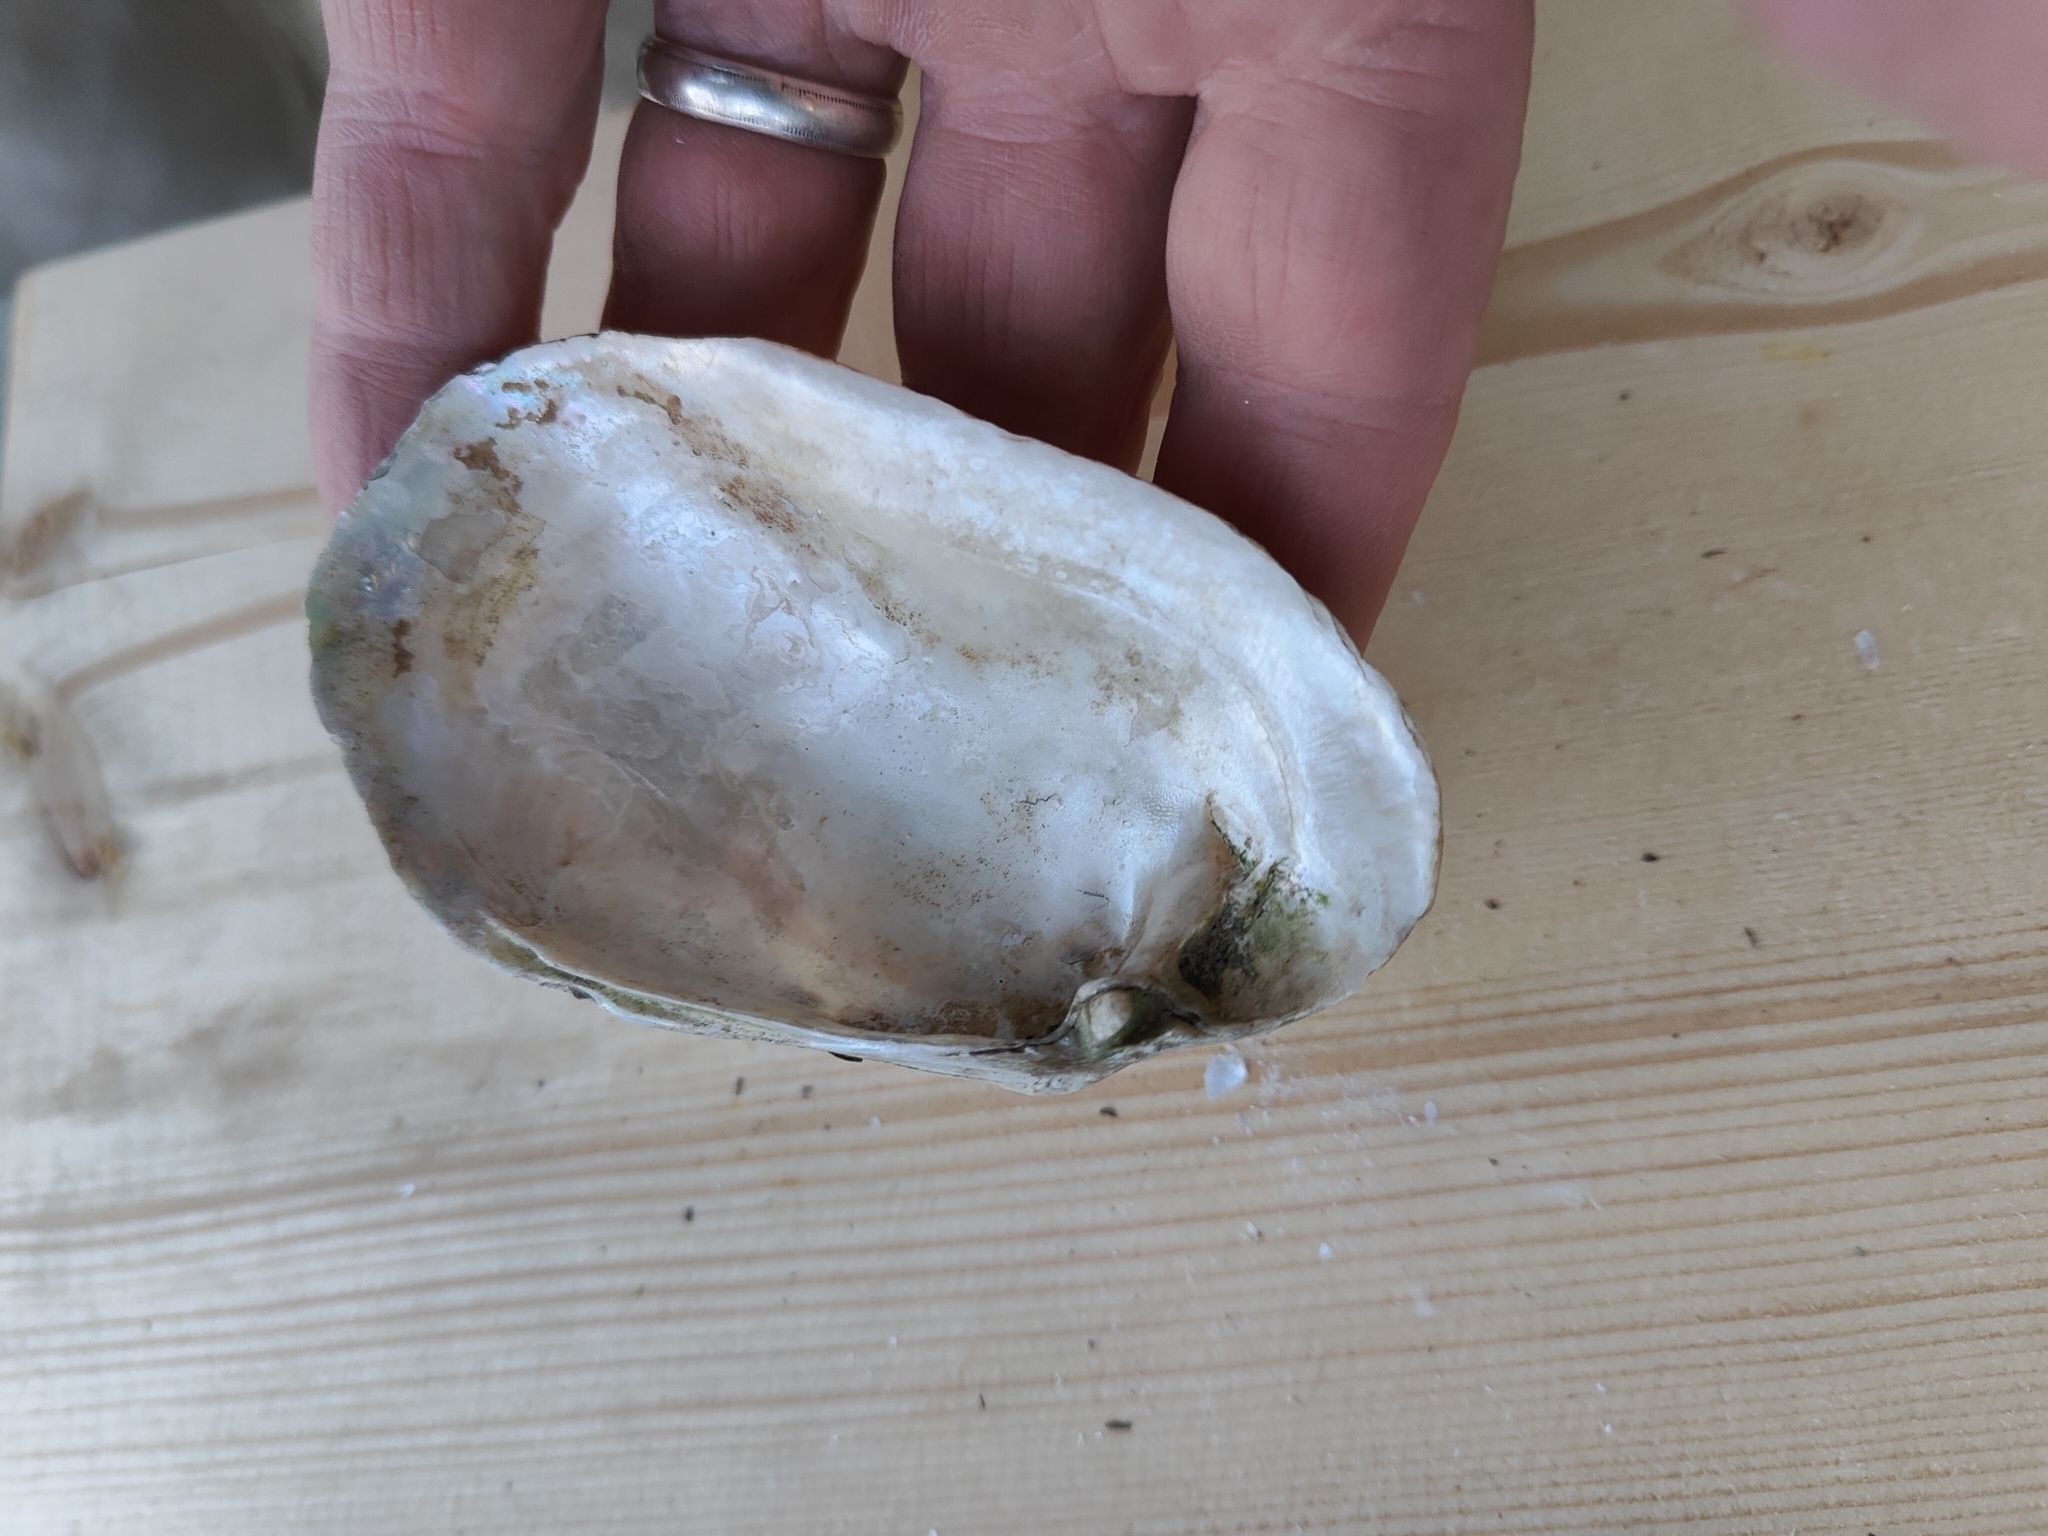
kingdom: Animalia
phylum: Mollusca
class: Bivalvia
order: Unionida
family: Unionidae
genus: Lampsilis
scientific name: Lampsilis siliquoidea
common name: Fatmucket
